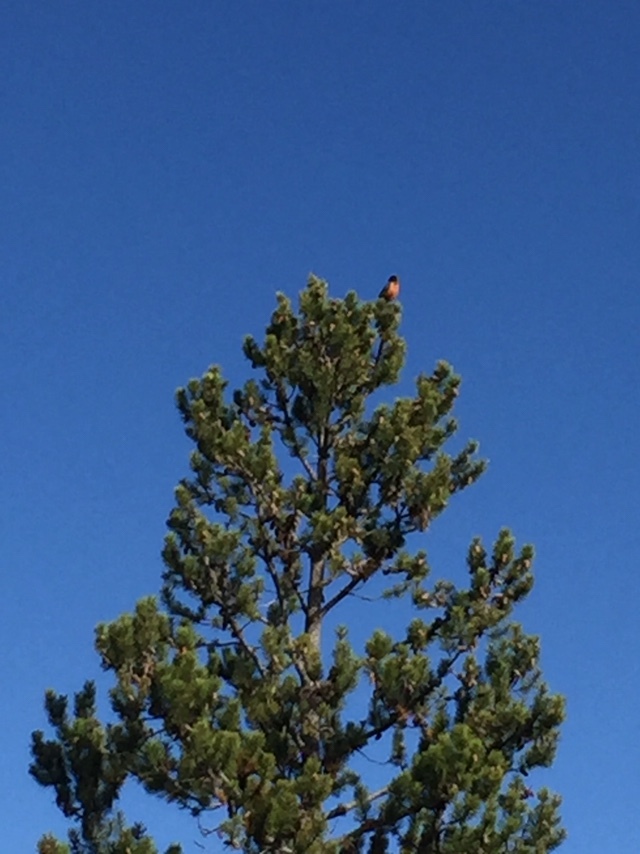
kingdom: Animalia
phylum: Chordata
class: Aves
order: Passeriformes
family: Turdidae
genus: Turdus
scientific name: Turdus migratorius
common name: American robin
